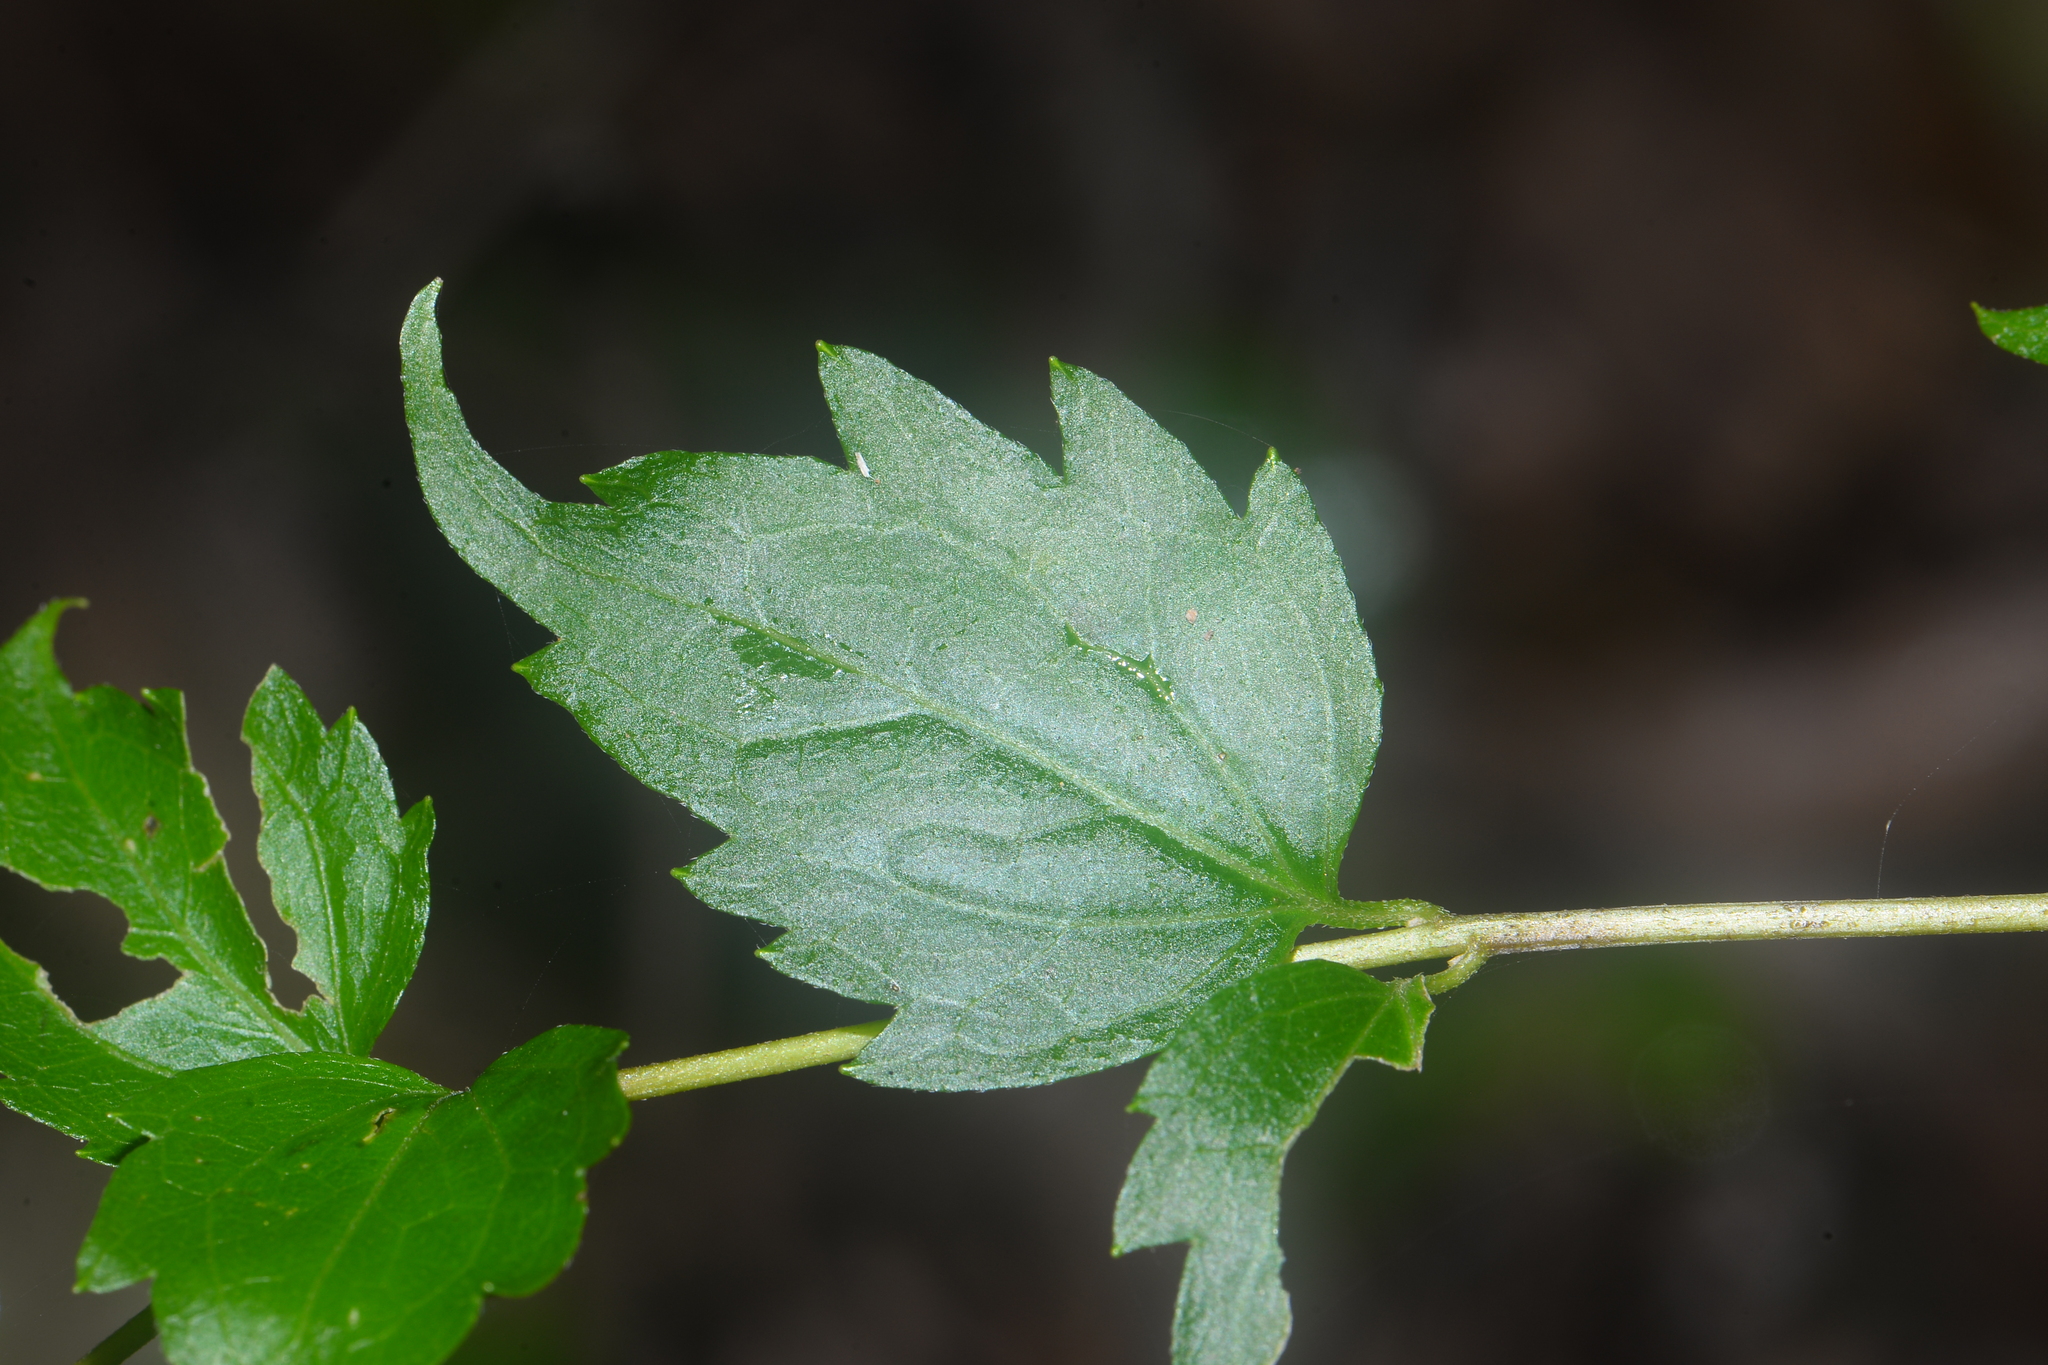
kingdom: Plantae
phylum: Tracheophyta
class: Magnoliopsida
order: Asterales
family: Asteraceae
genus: Eupatorium
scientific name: Eupatorium tashiroi
